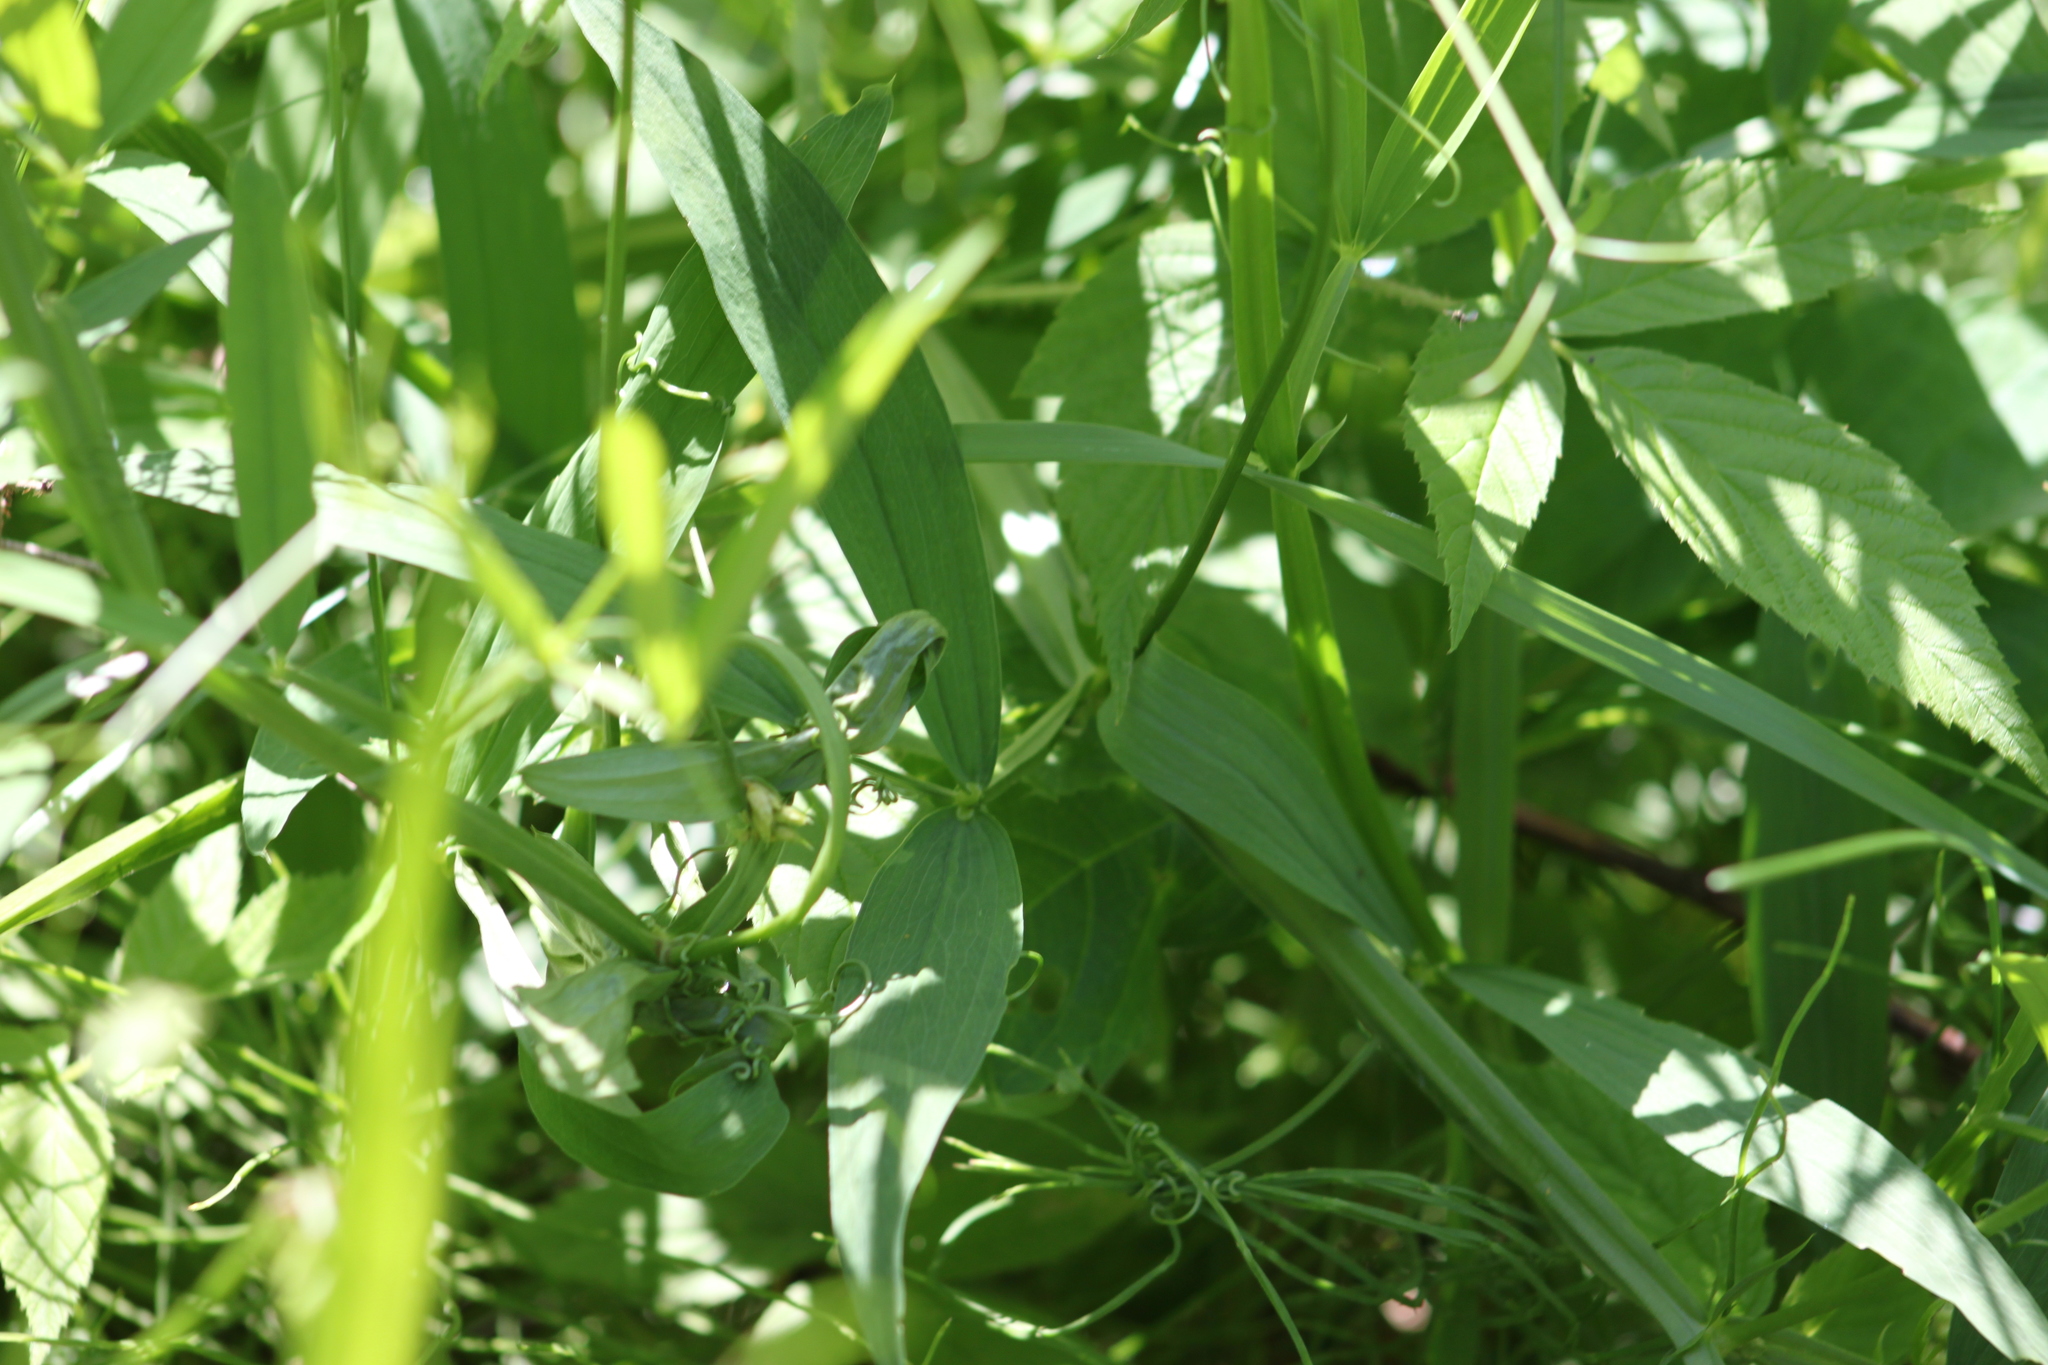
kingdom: Plantae
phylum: Tracheophyta
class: Magnoliopsida
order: Fabales
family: Fabaceae
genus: Lathyrus
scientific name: Lathyrus latifolius
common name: Perennial pea
